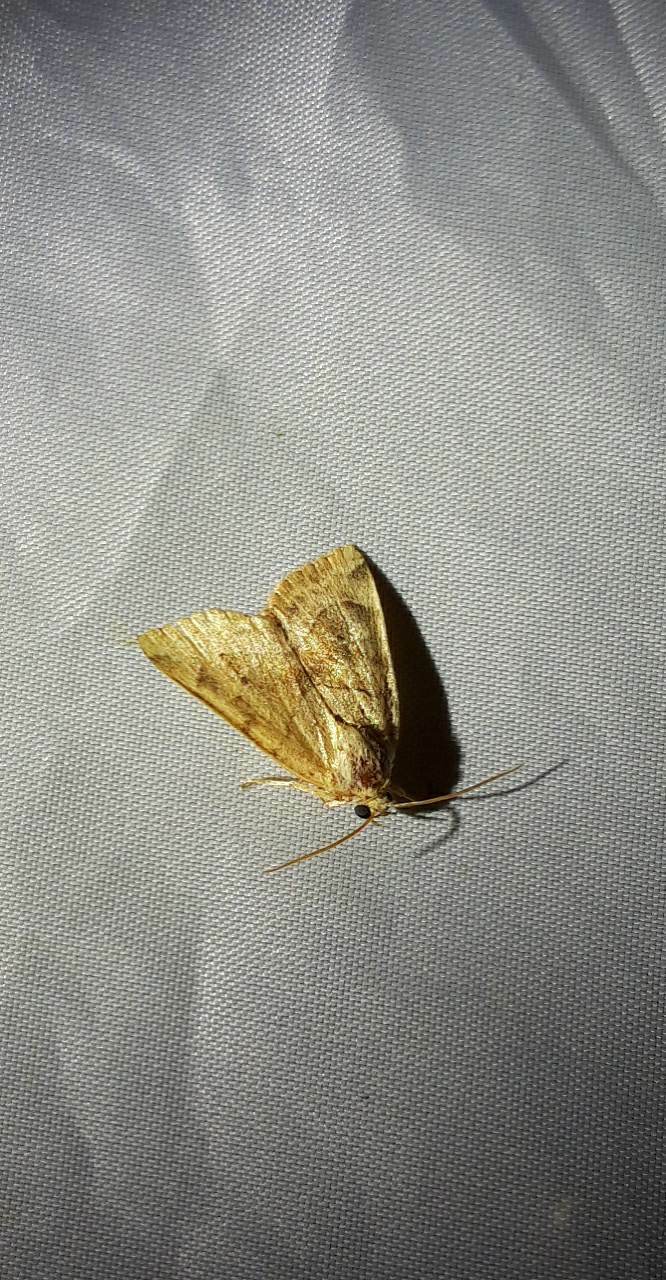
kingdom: Animalia
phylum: Arthropoda
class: Insecta
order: Lepidoptera
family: Noctuidae
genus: Cosmia
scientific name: Cosmia trapezina
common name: Dun-bar
